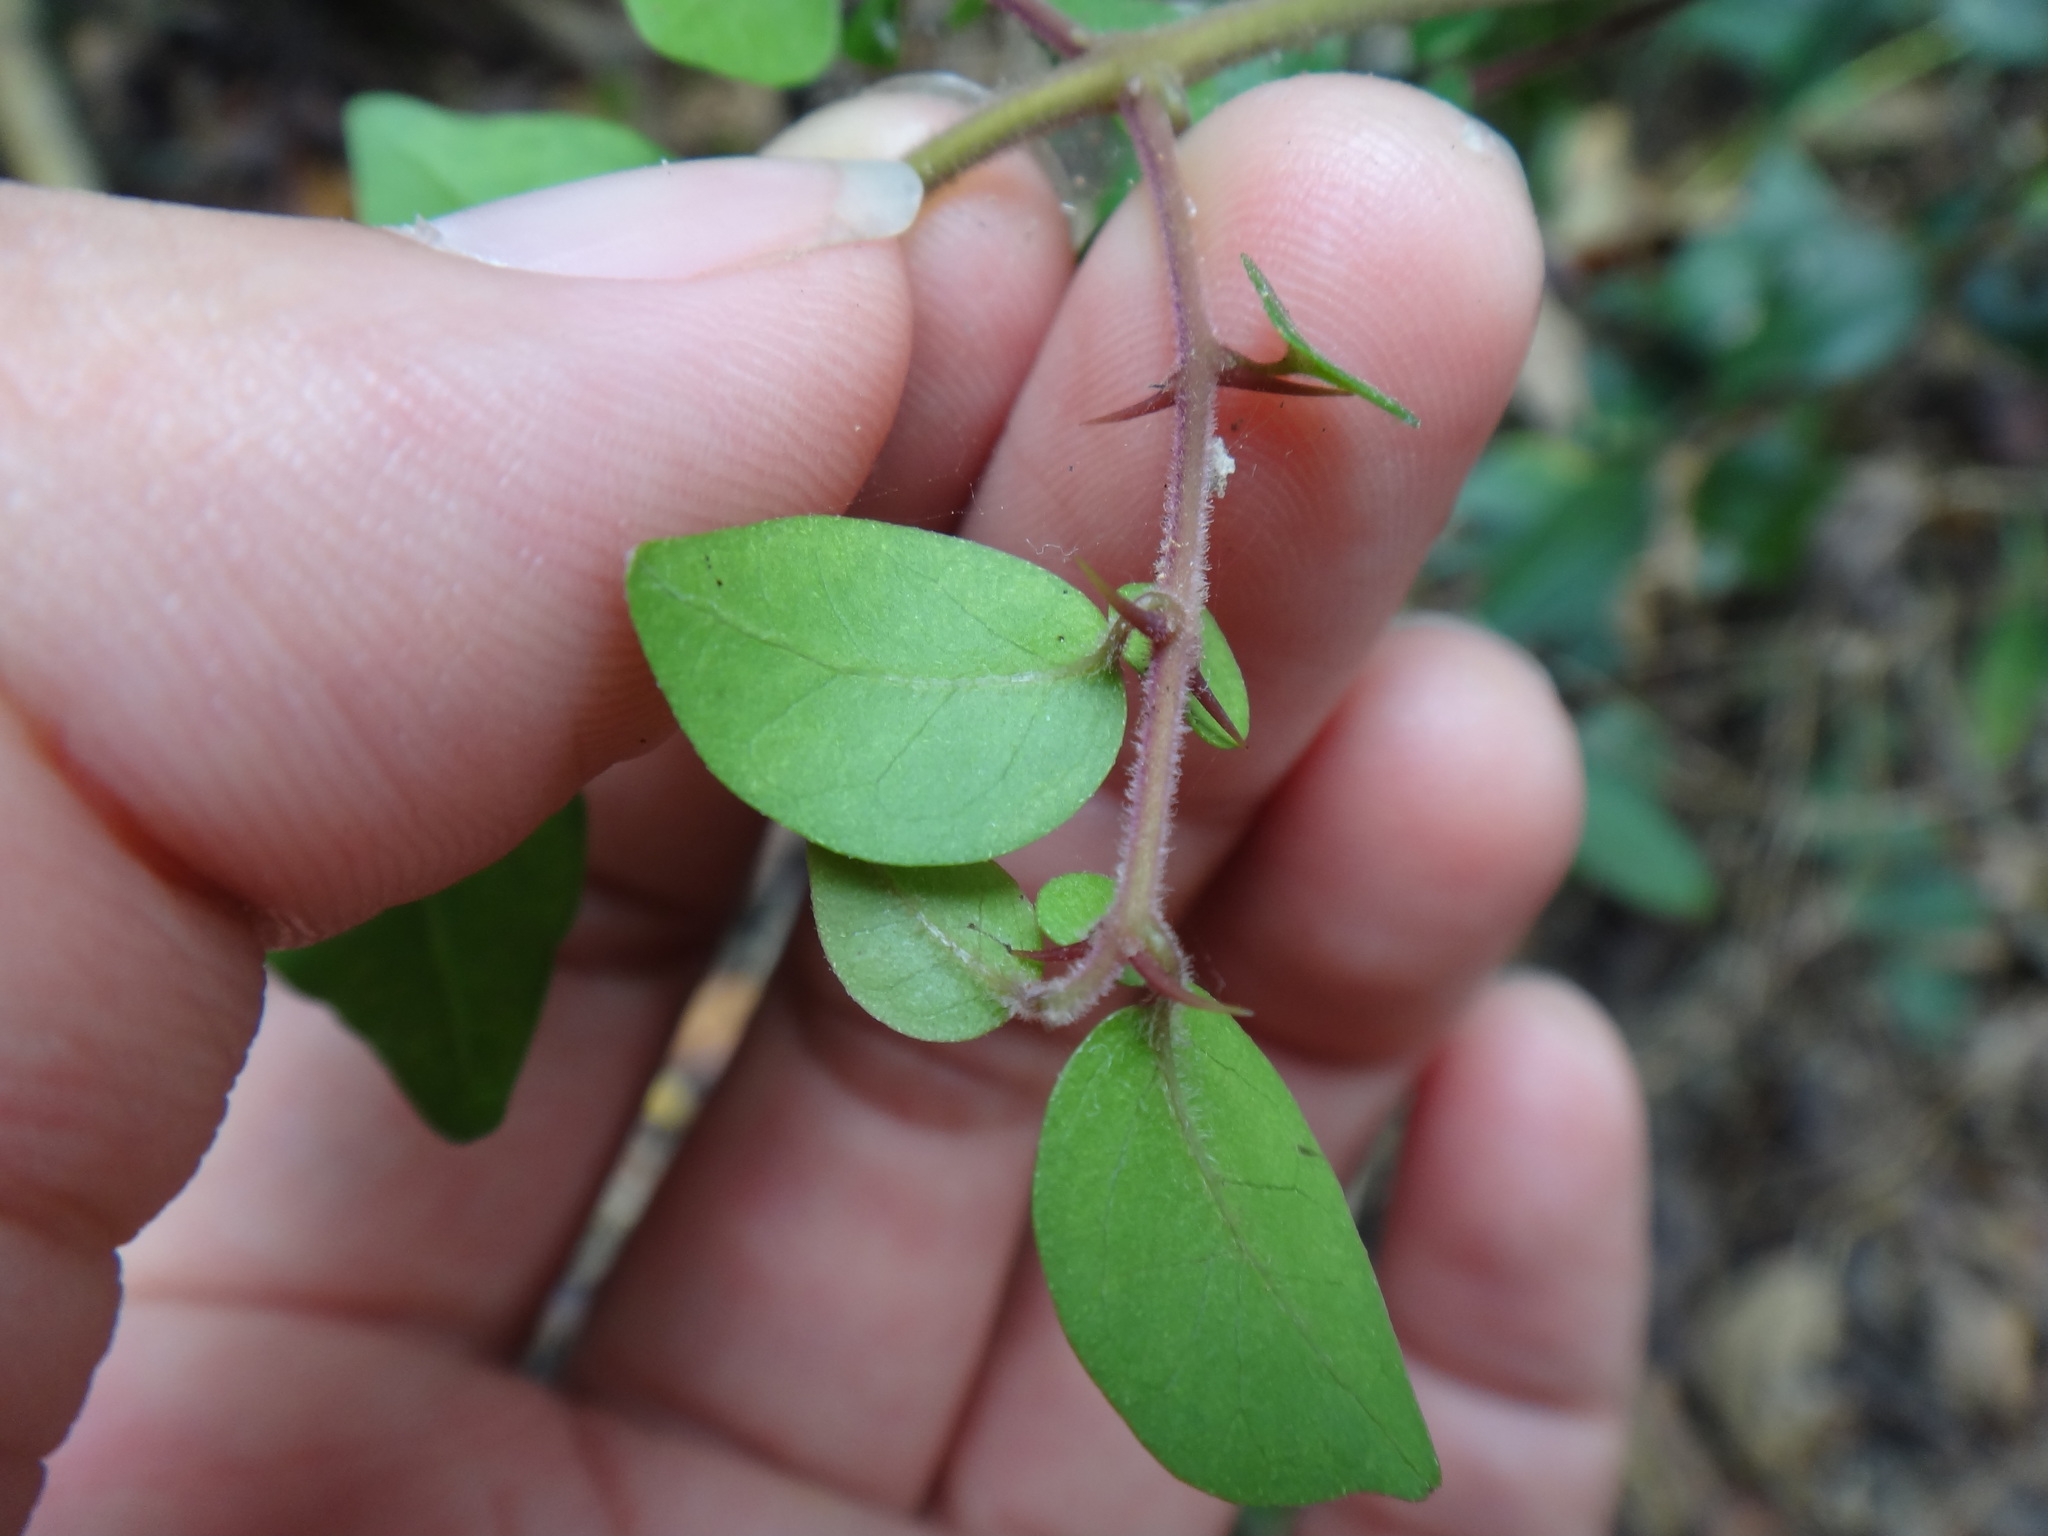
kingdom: Plantae
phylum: Tracheophyta
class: Magnoliopsida
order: Caryophyllales
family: Nyctaginaceae
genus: Pisonia
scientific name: Pisonia aculeata
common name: Cockspur vine
